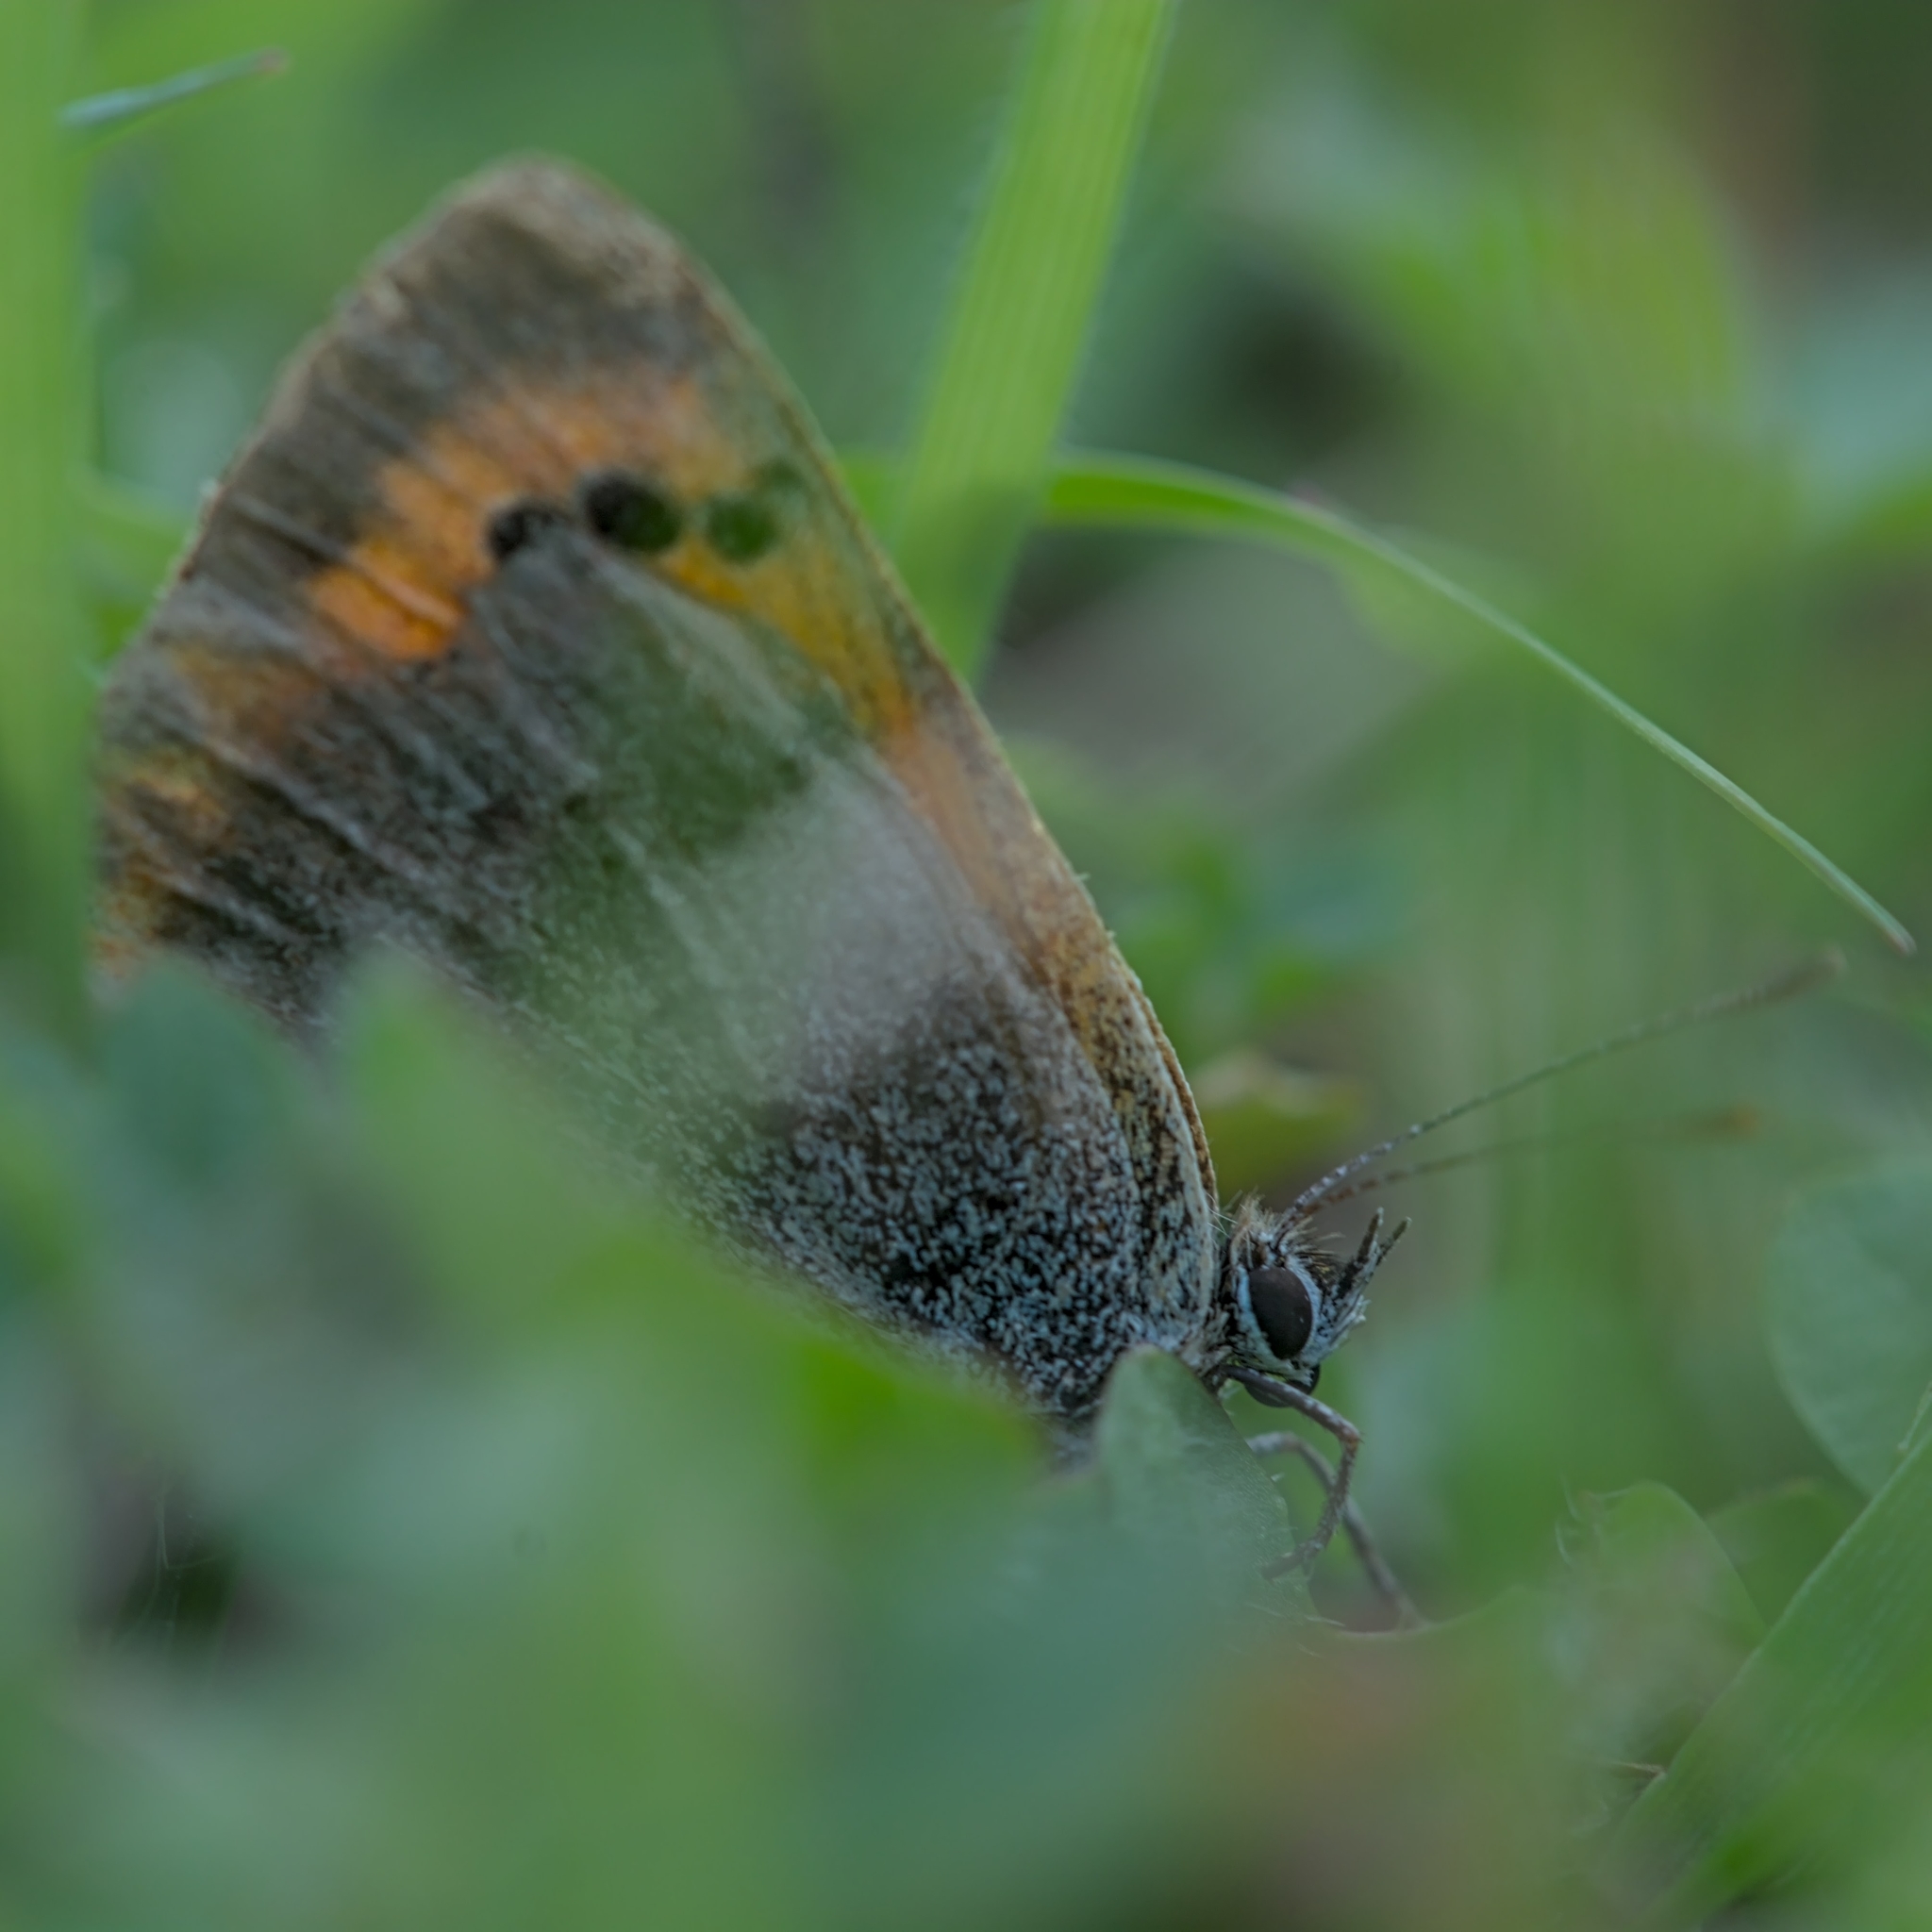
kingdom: Animalia
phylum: Arthropoda
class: Insecta
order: Lepidoptera
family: Lycaenidae
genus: Lycaena
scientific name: Lycaena phlaeas
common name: Small copper
